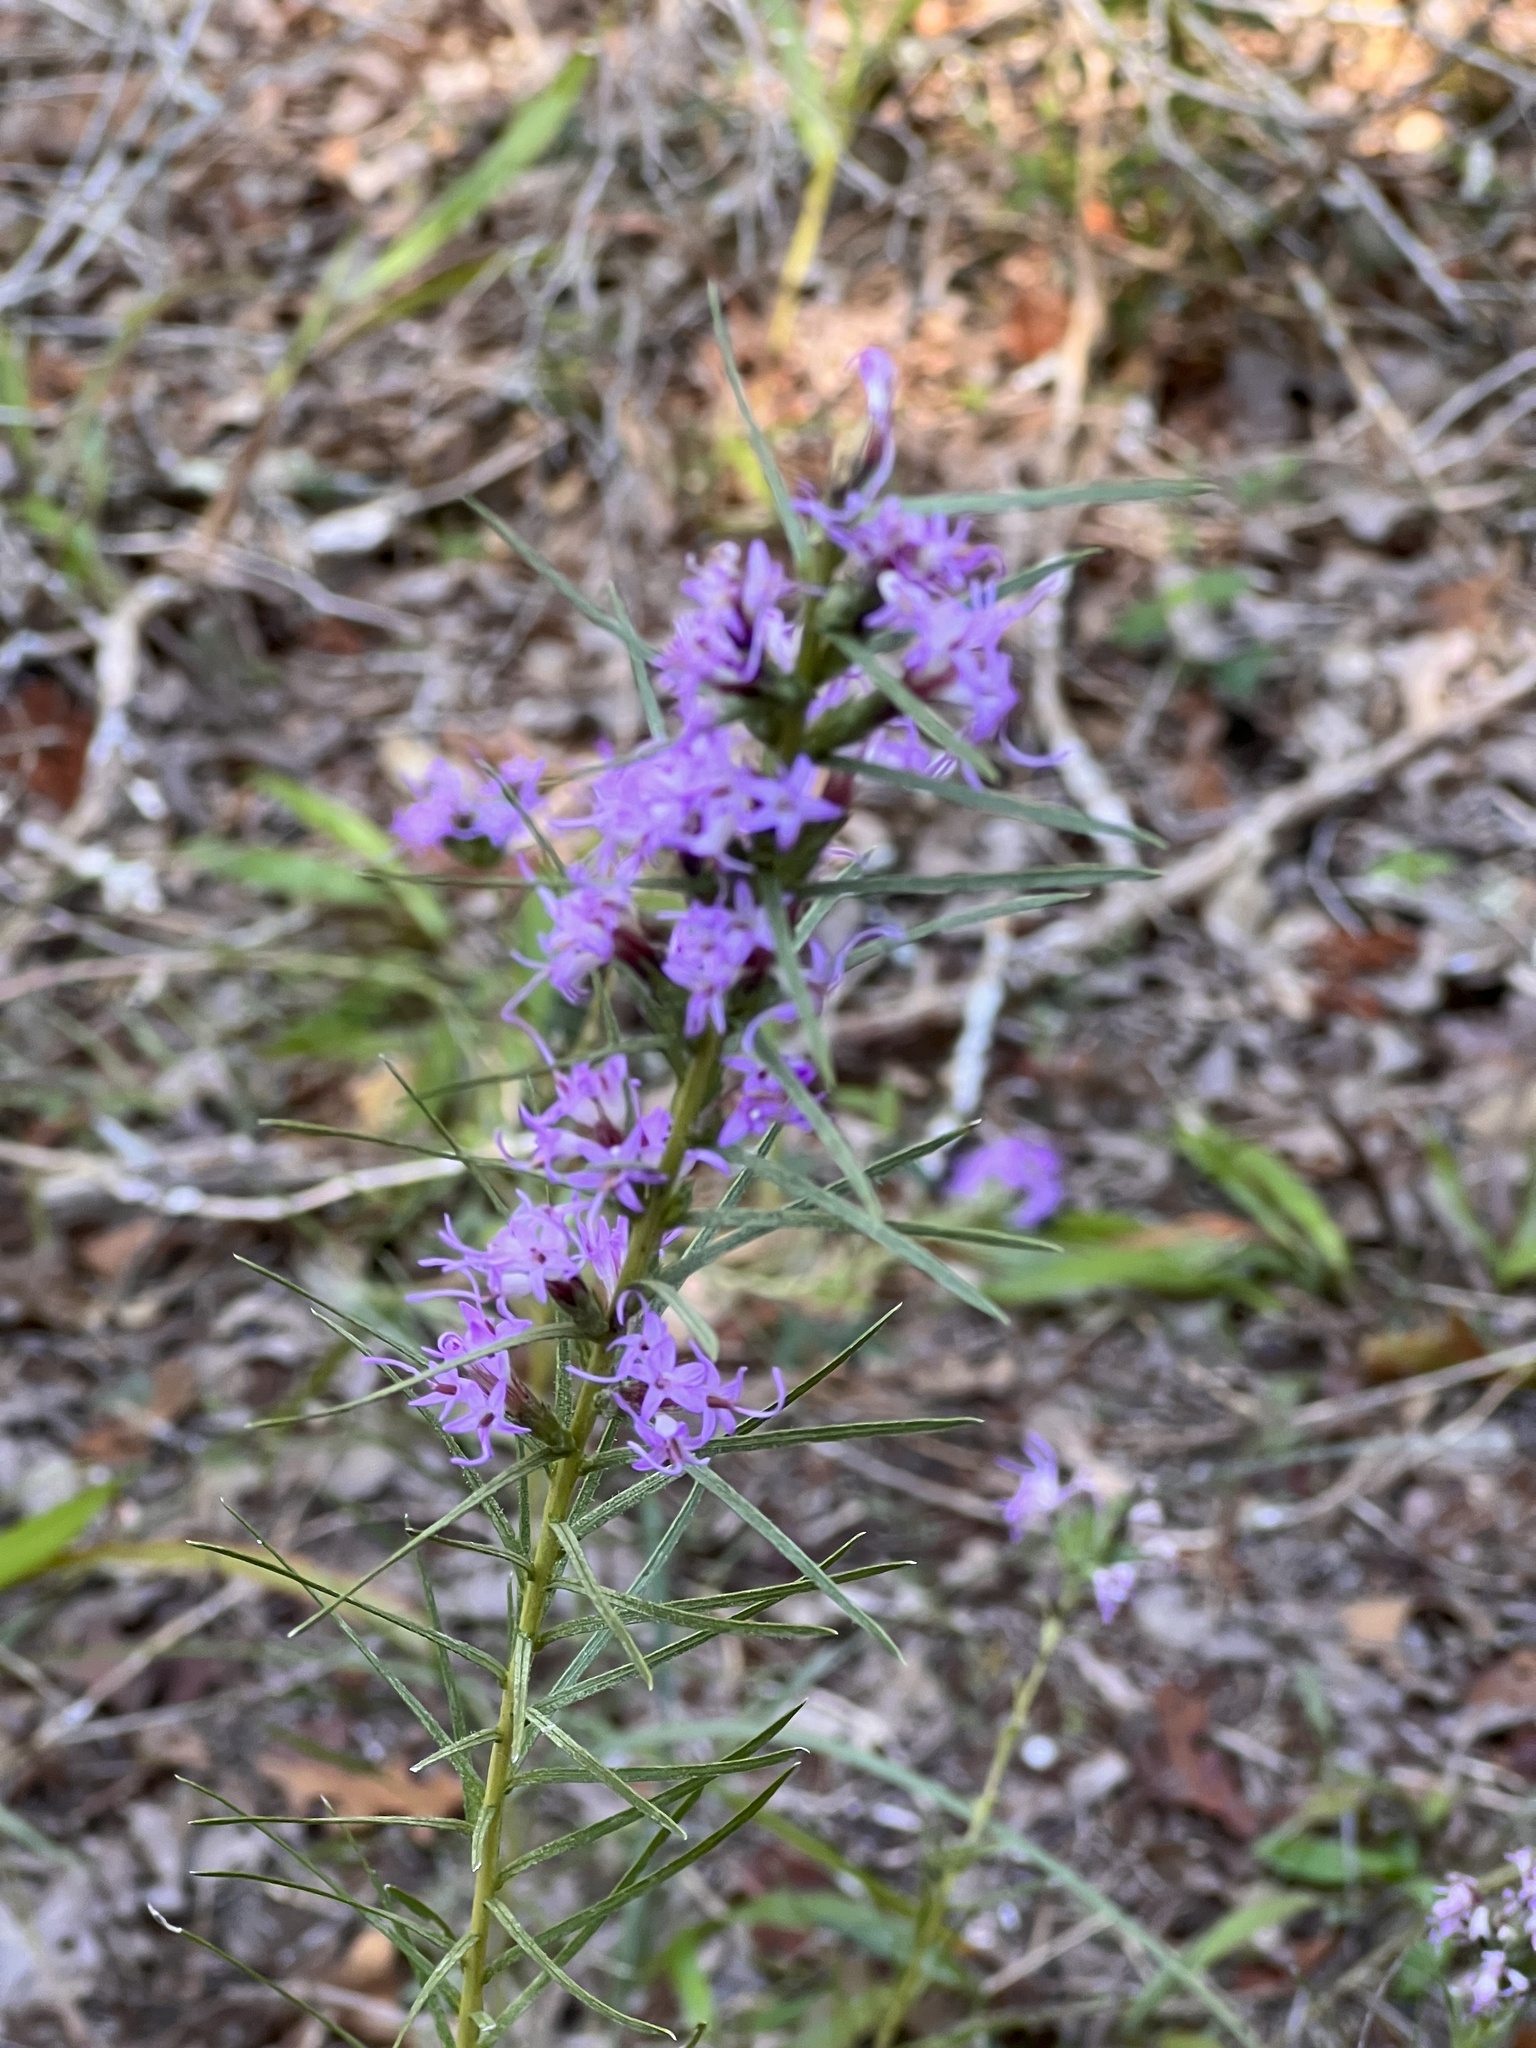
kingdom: Plantae
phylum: Tracheophyta
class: Magnoliopsida
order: Asterales
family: Asteraceae
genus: Liatris
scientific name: Liatris punctata
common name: Dotted gayfeather
